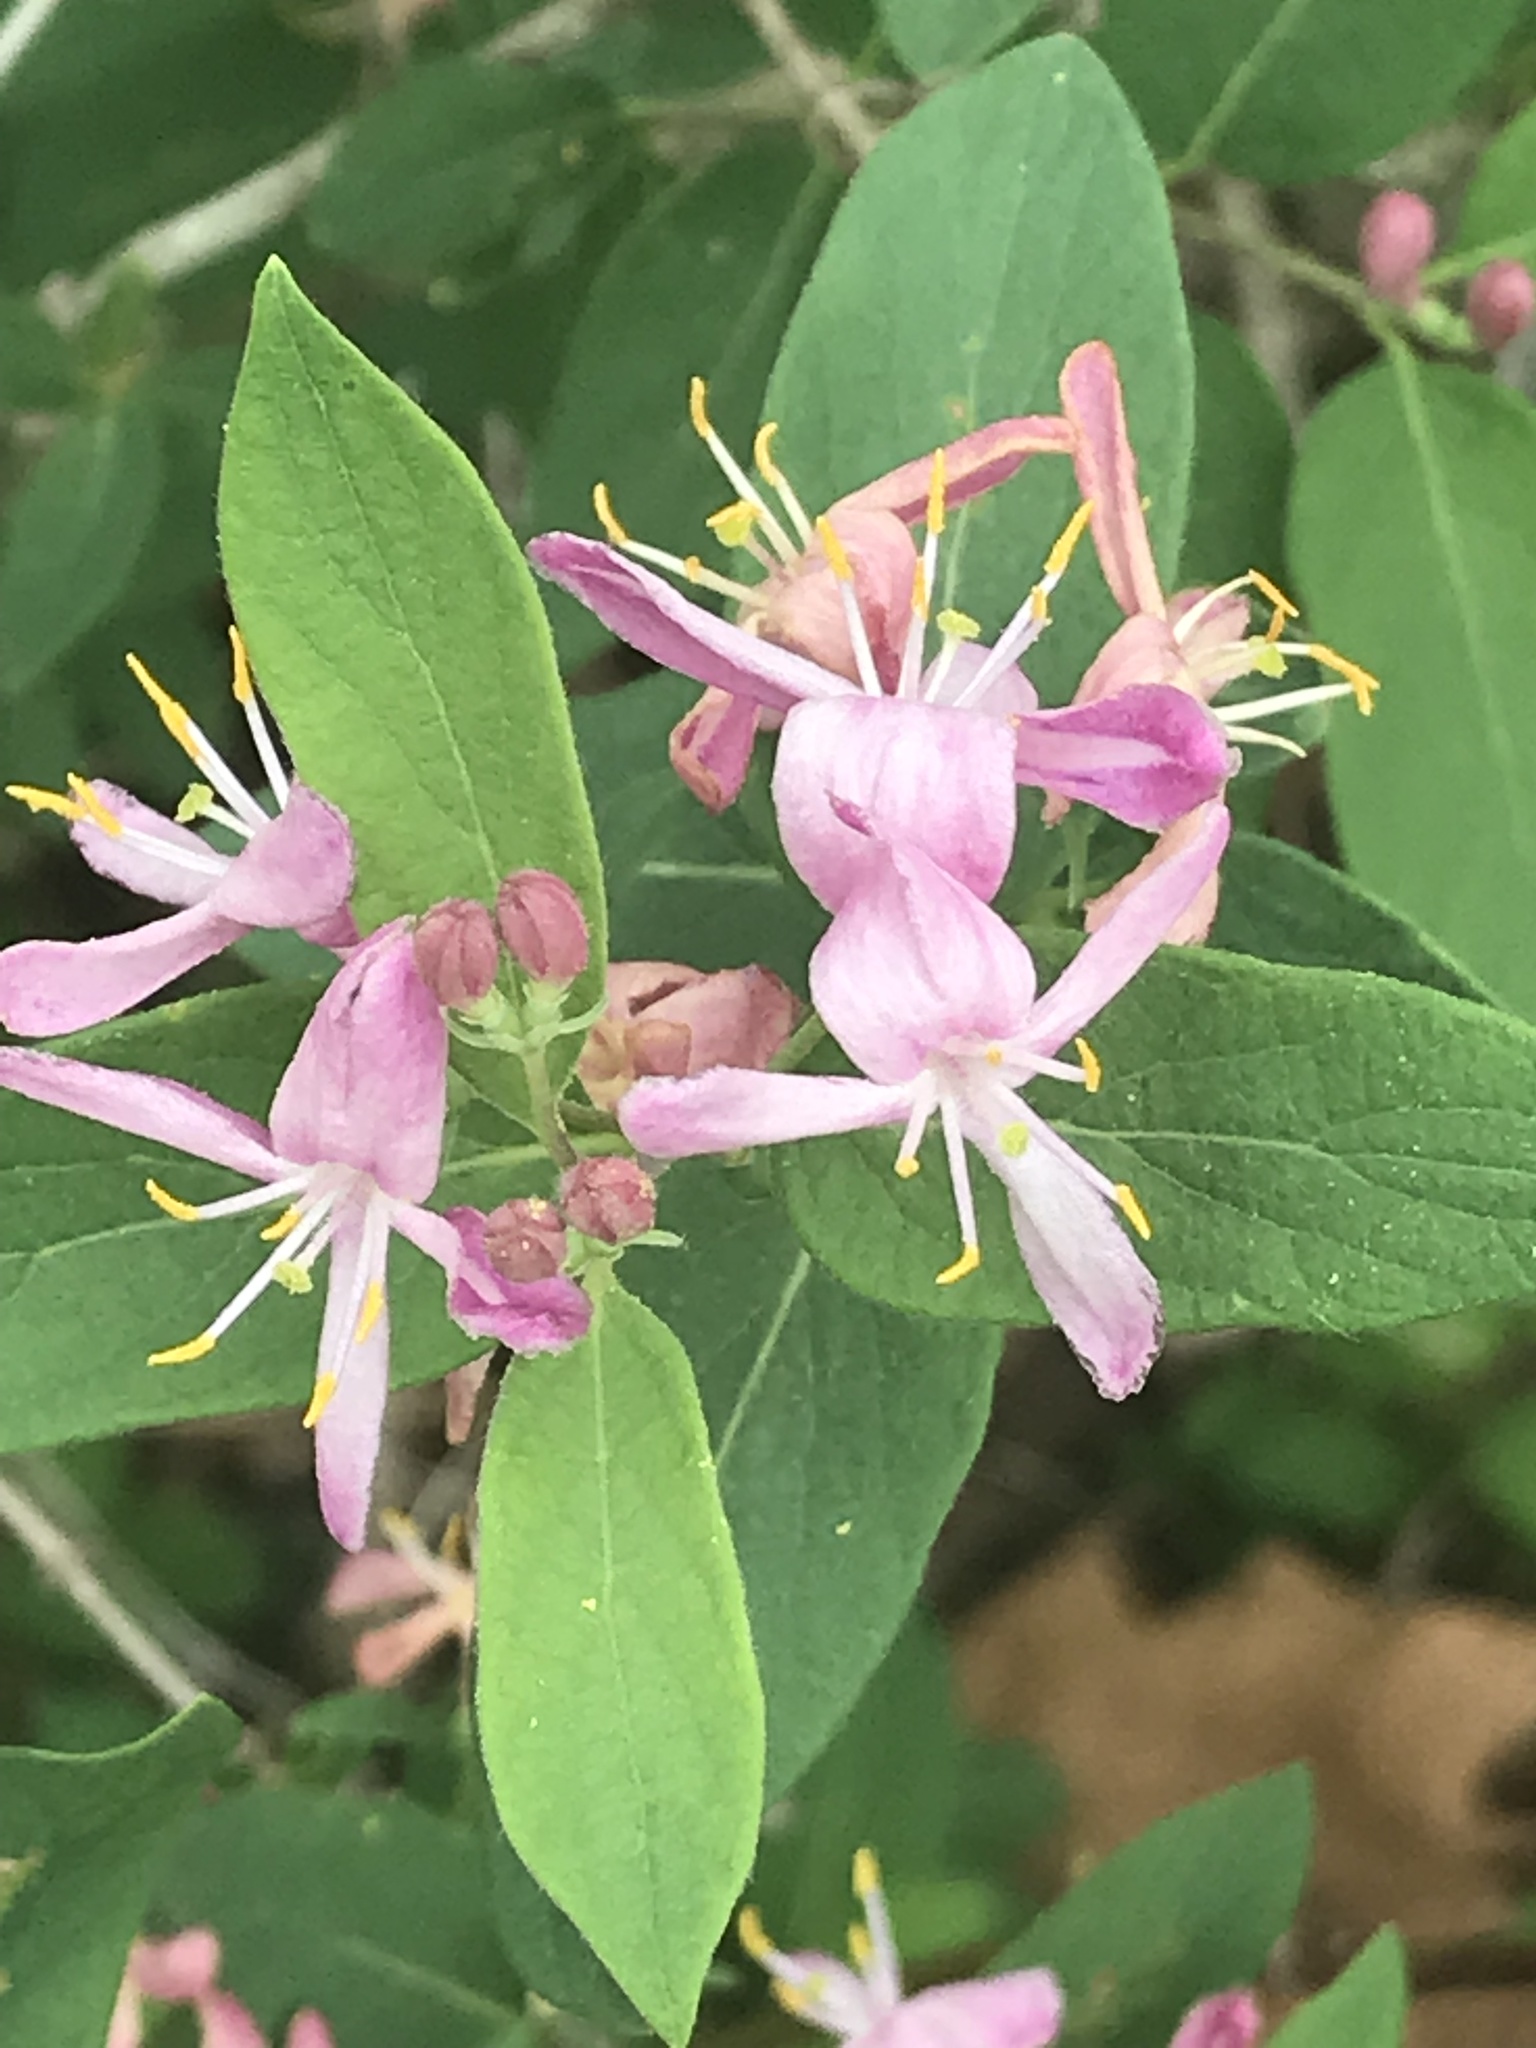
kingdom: Plantae
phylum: Tracheophyta
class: Magnoliopsida
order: Dipsacales
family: Caprifoliaceae
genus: Lonicera
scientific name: Lonicera
